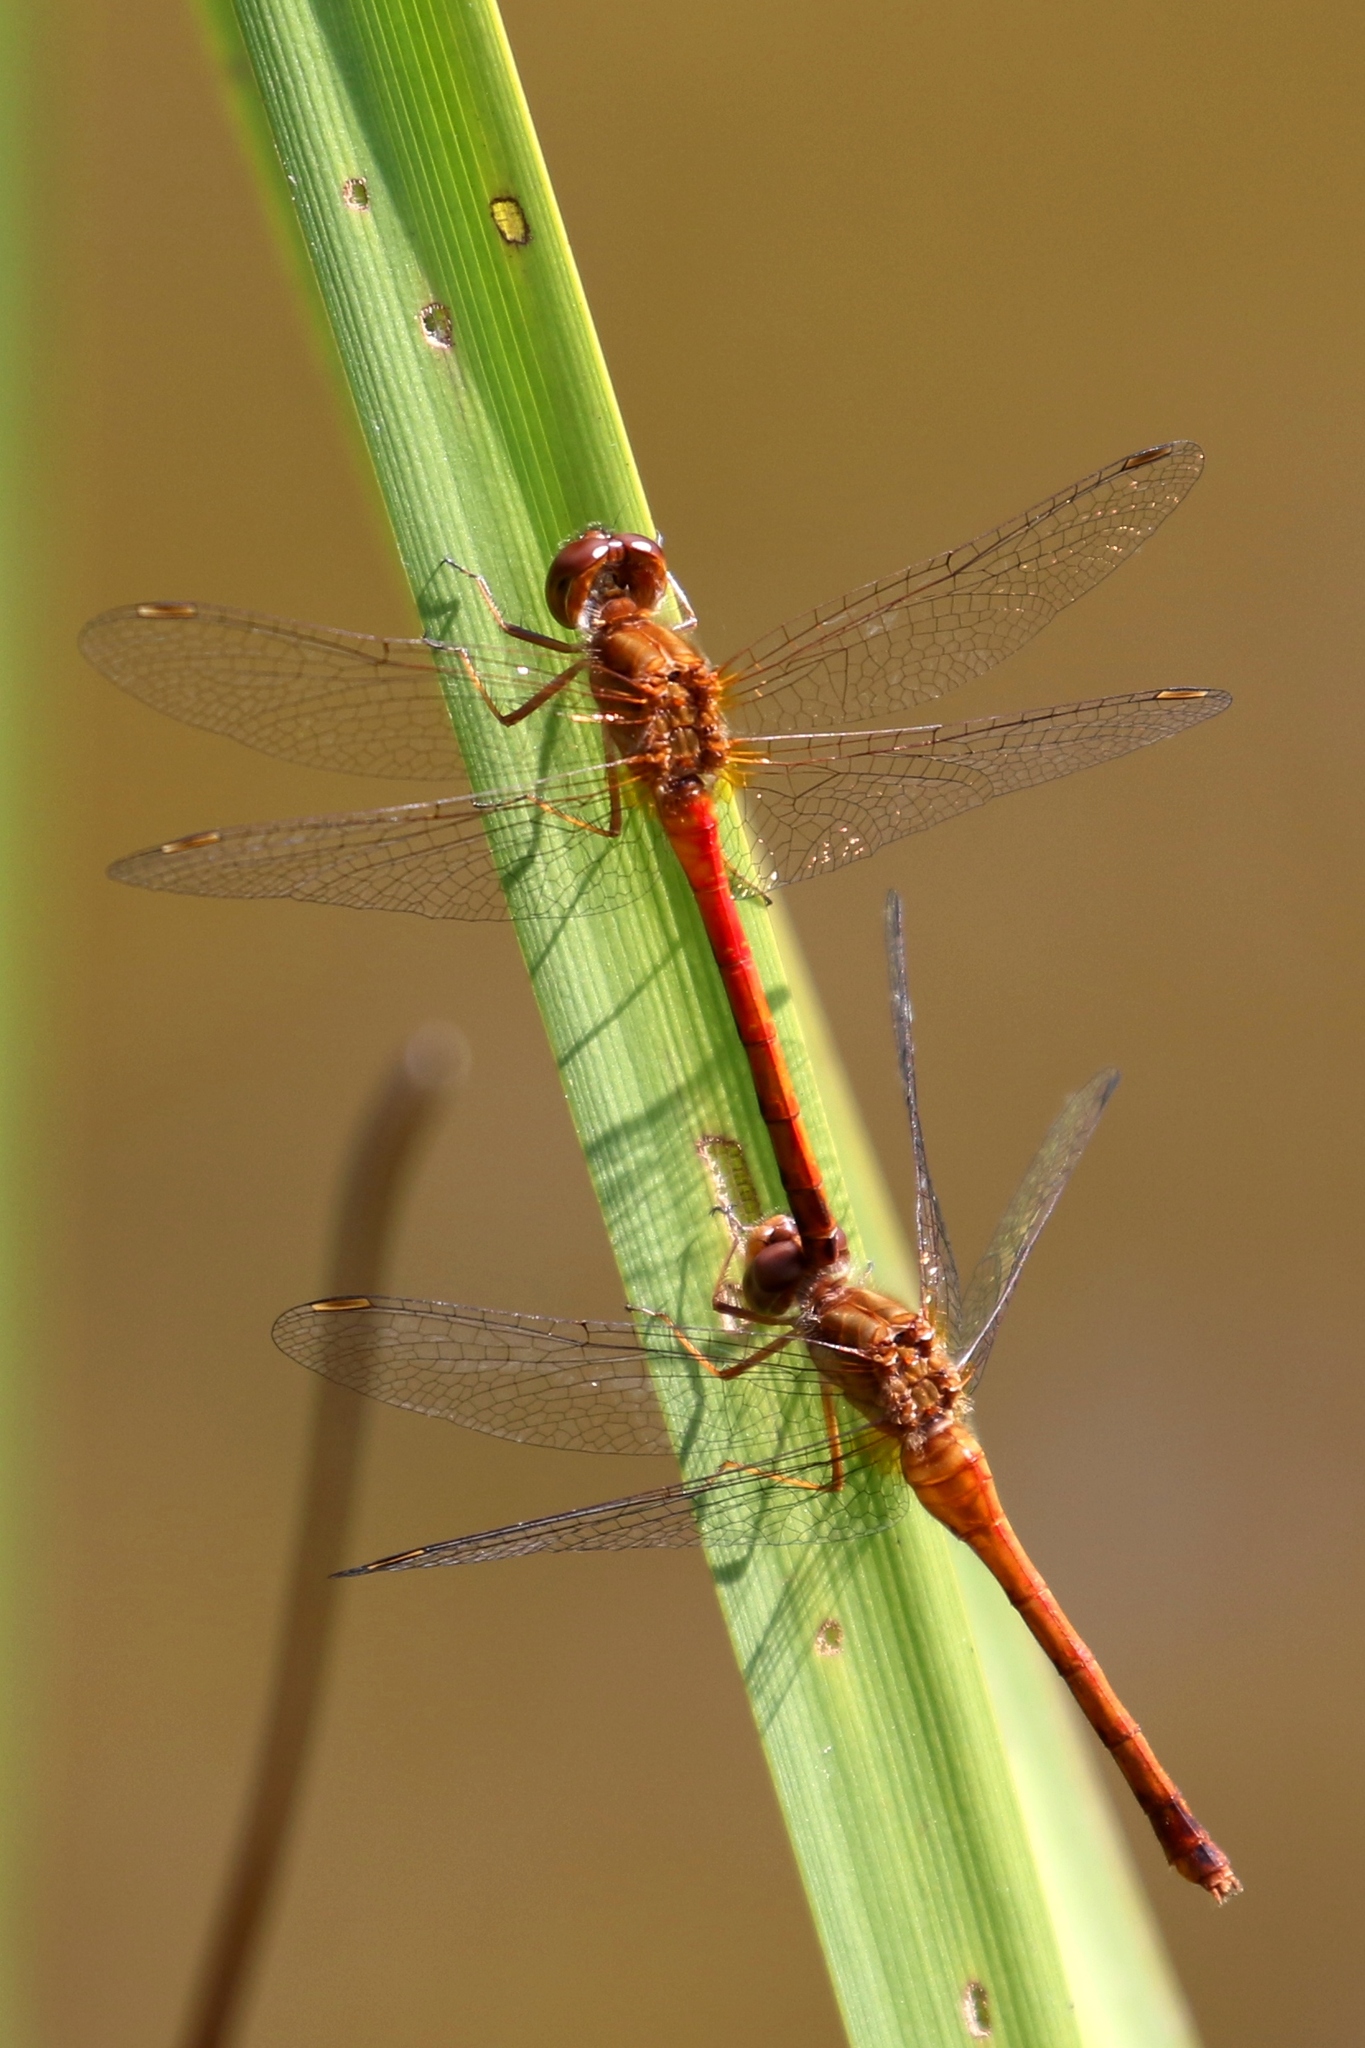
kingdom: Animalia
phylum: Arthropoda
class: Insecta
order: Odonata
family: Libellulidae
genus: Sympetrum
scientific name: Sympetrum vicinum
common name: Autumn meadowhawk
